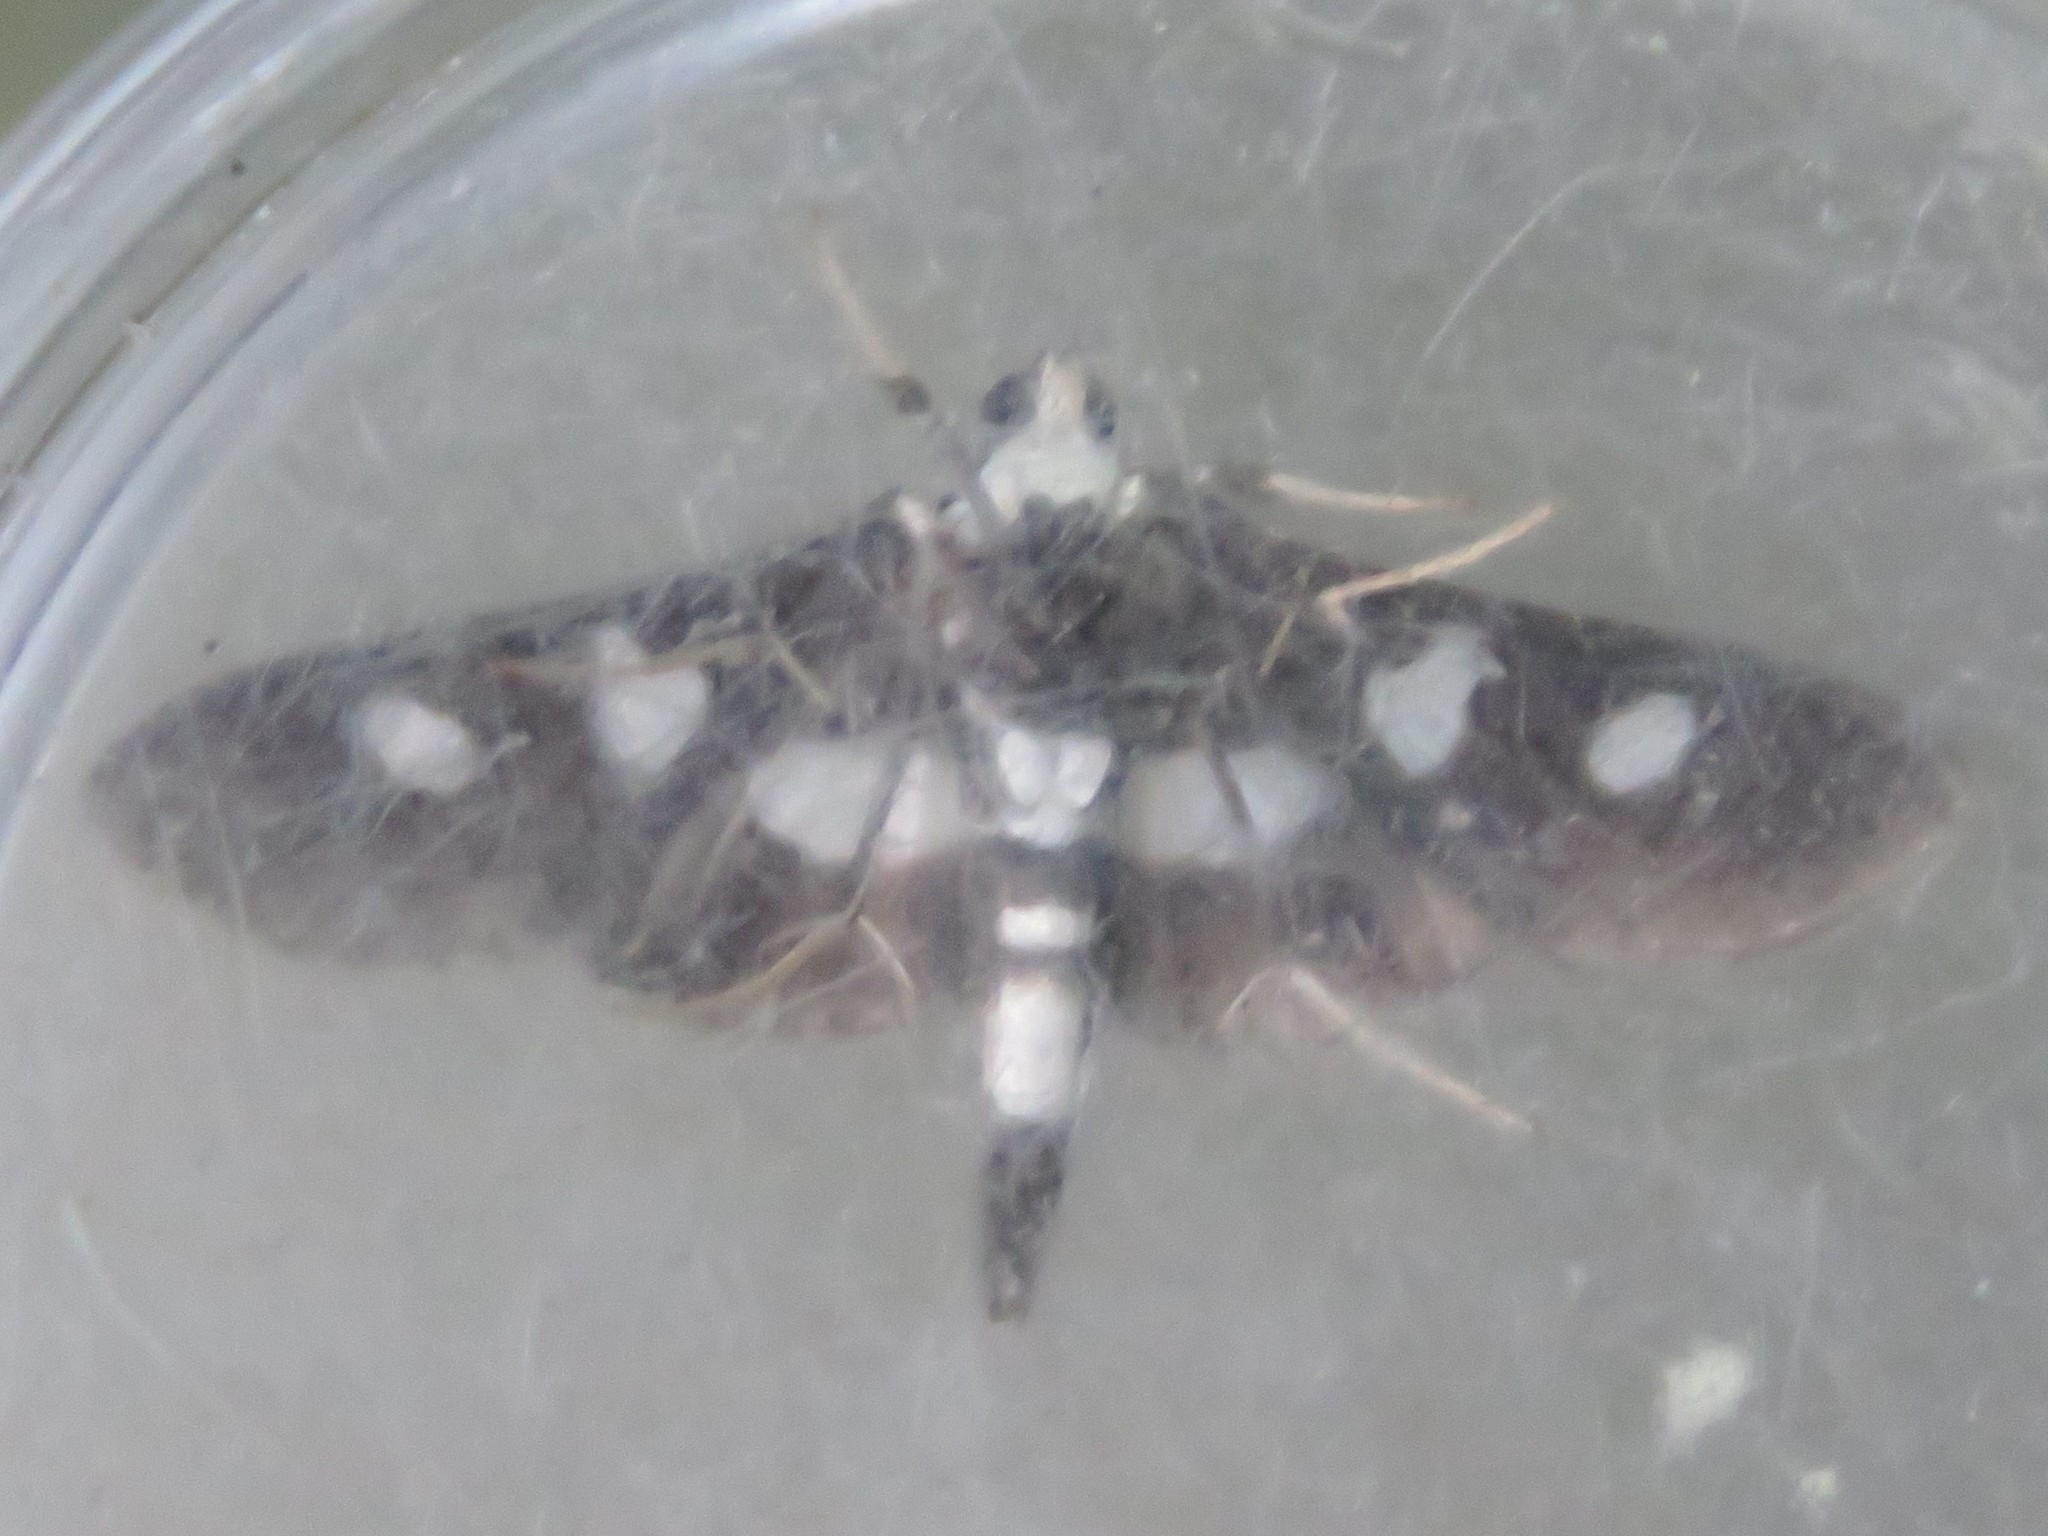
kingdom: Animalia
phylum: Arthropoda
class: Insecta
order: Lepidoptera
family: Crambidae
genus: Desmia
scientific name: Desmia funeralis
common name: Grape leaf folder moth
